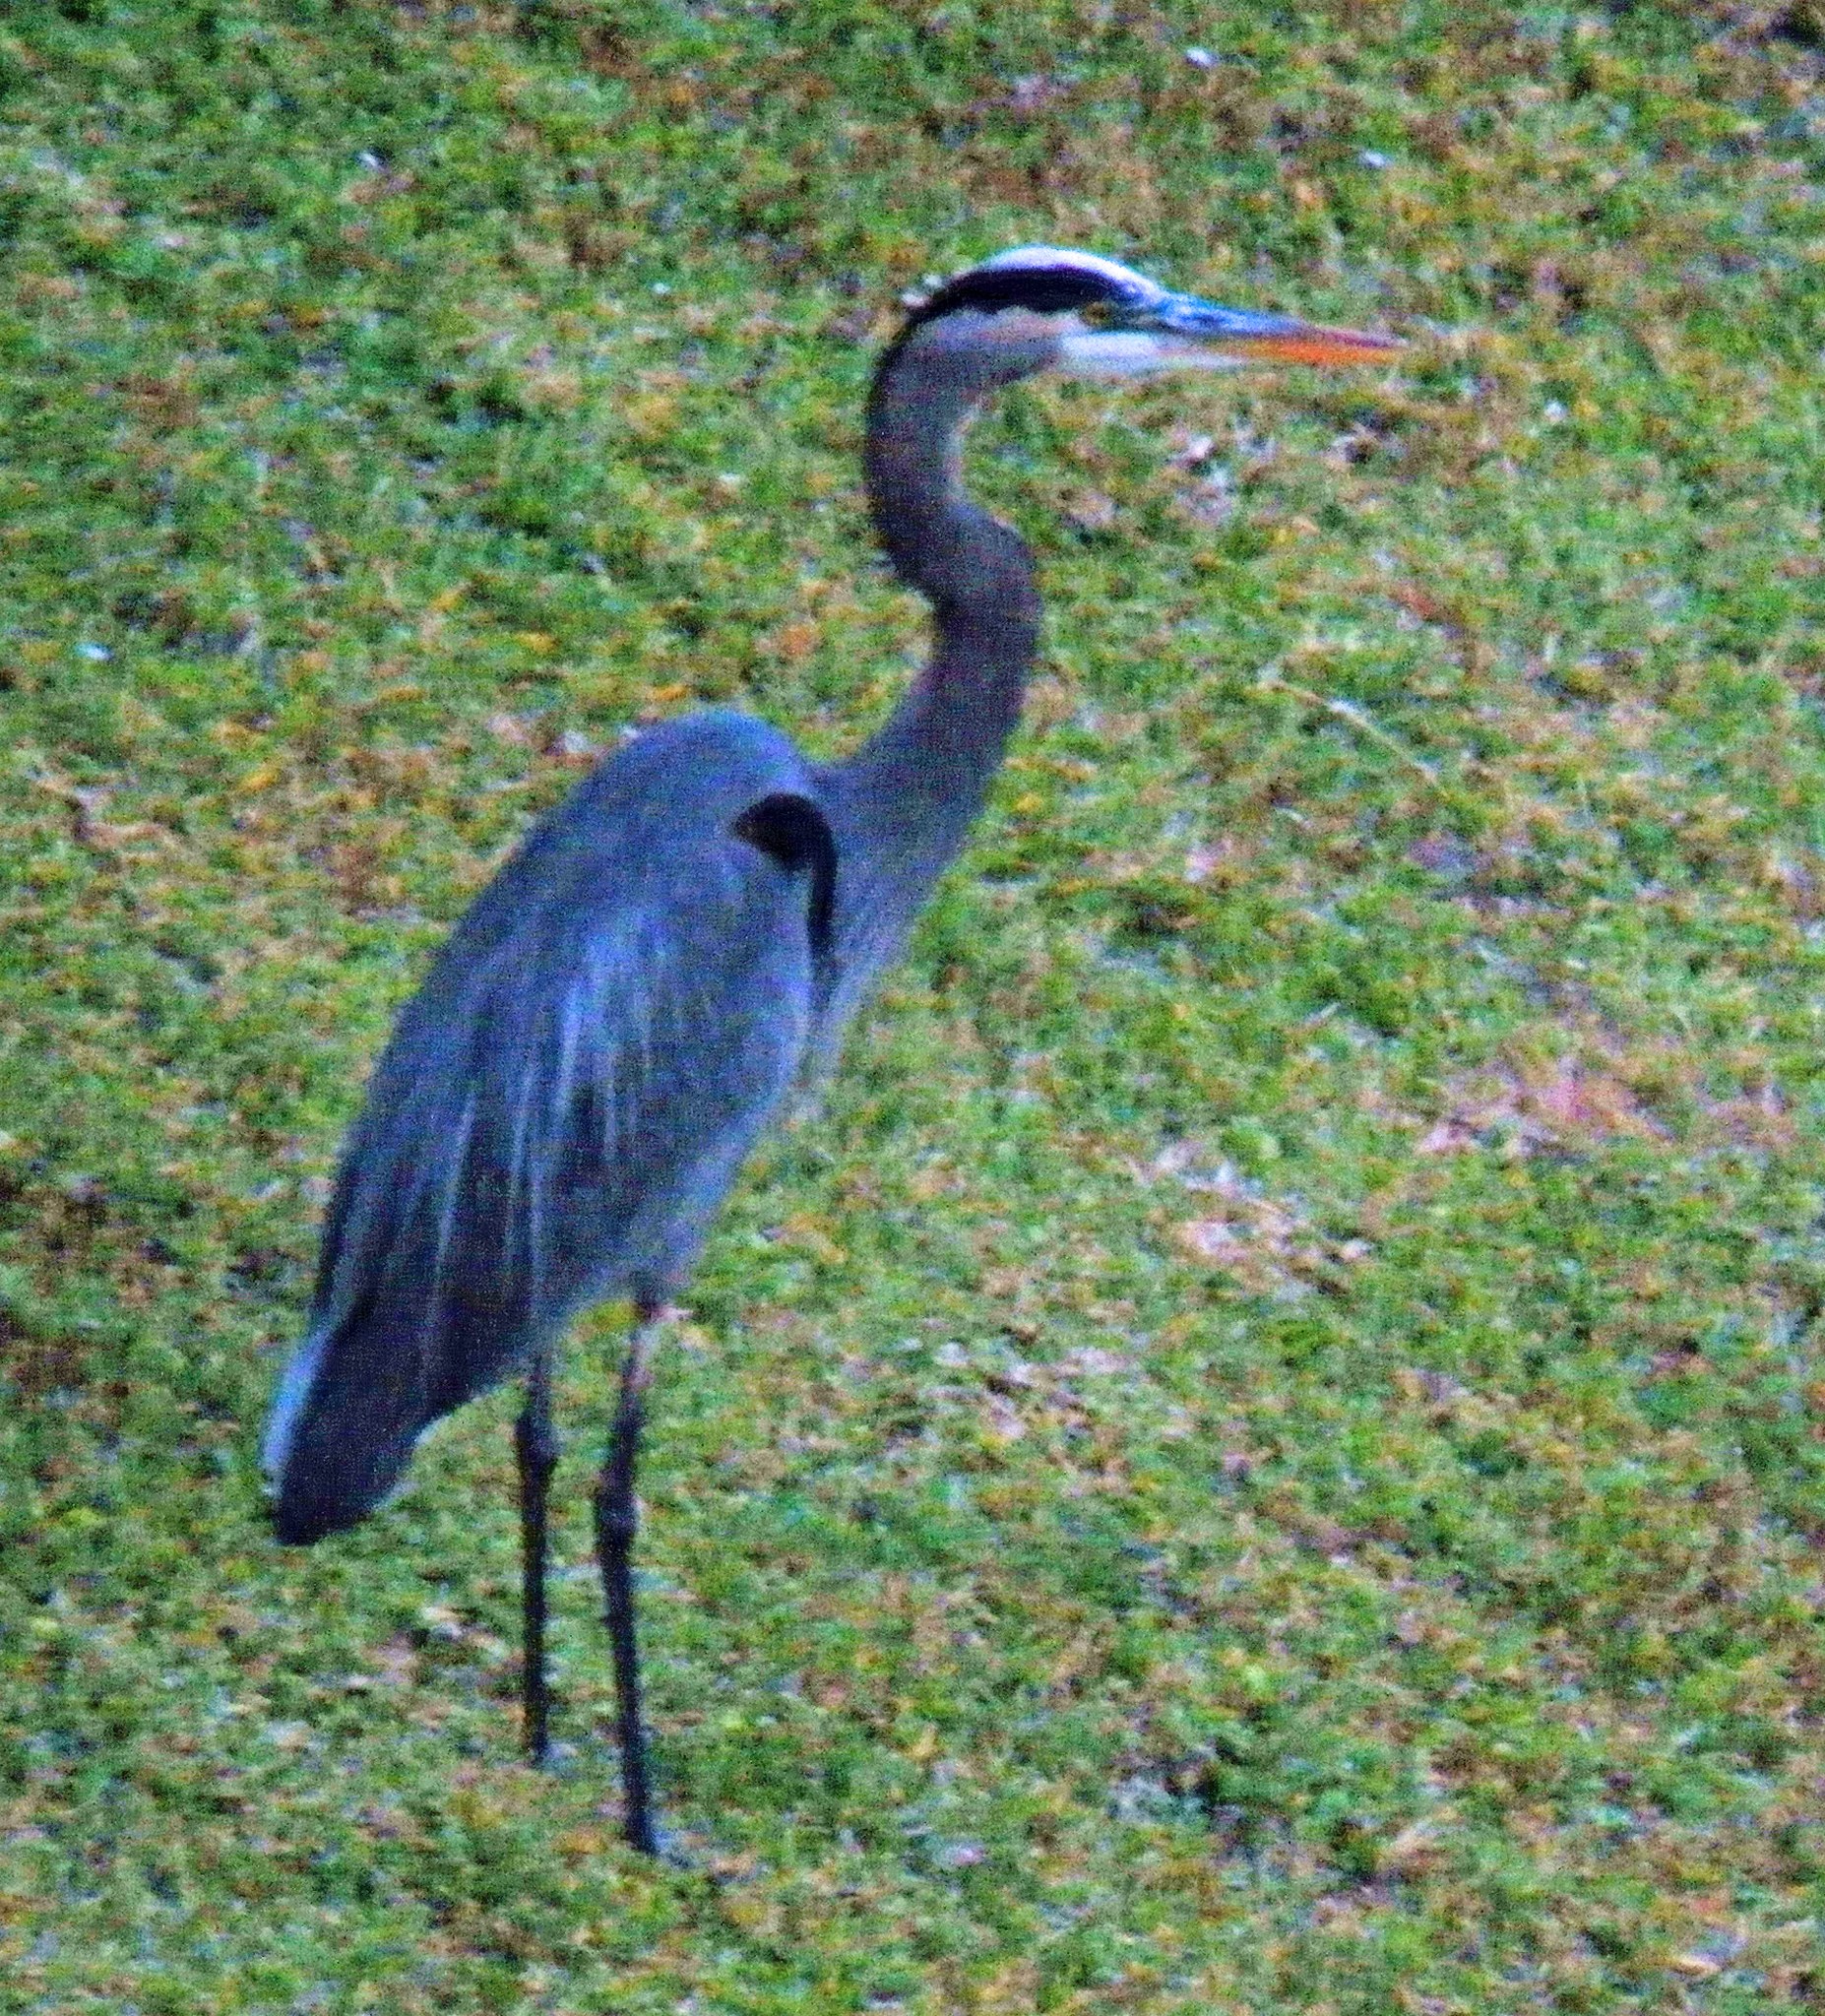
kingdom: Animalia
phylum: Chordata
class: Aves
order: Pelecaniformes
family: Ardeidae
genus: Ardea
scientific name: Ardea herodias
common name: Great blue heron
